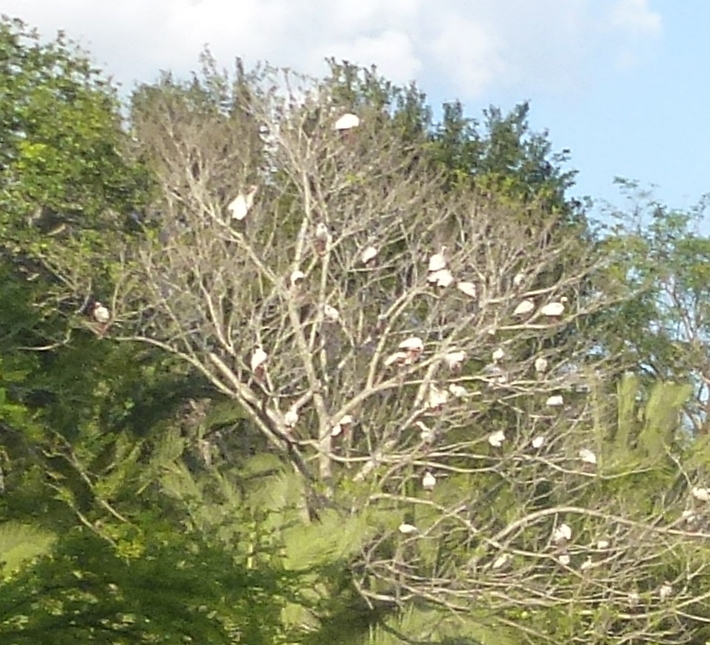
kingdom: Animalia
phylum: Chordata
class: Aves
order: Pelecaniformes
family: Threskiornithidae
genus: Eudocimus
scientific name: Eudocimus albus
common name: White ibis
